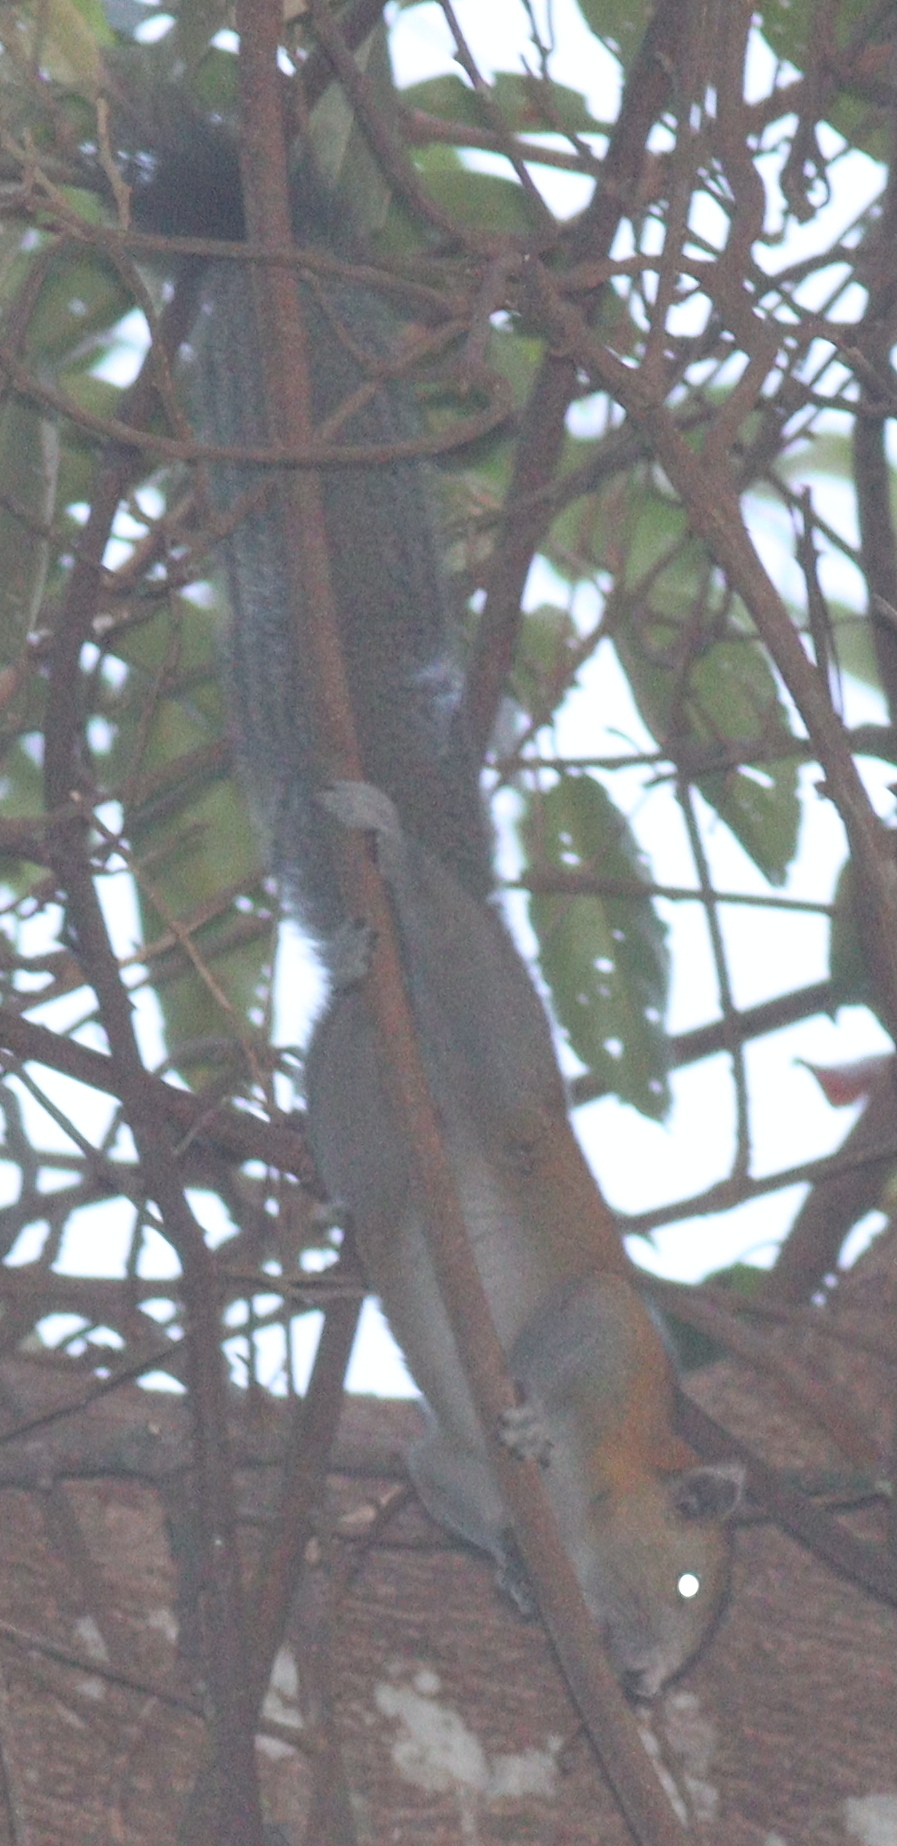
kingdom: Animalia
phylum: Chordata
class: Mammalia
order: Rodentia
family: Sciuridae
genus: Callosciurus
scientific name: Callosciurus caniceps
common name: Gray-bellied squirrel
